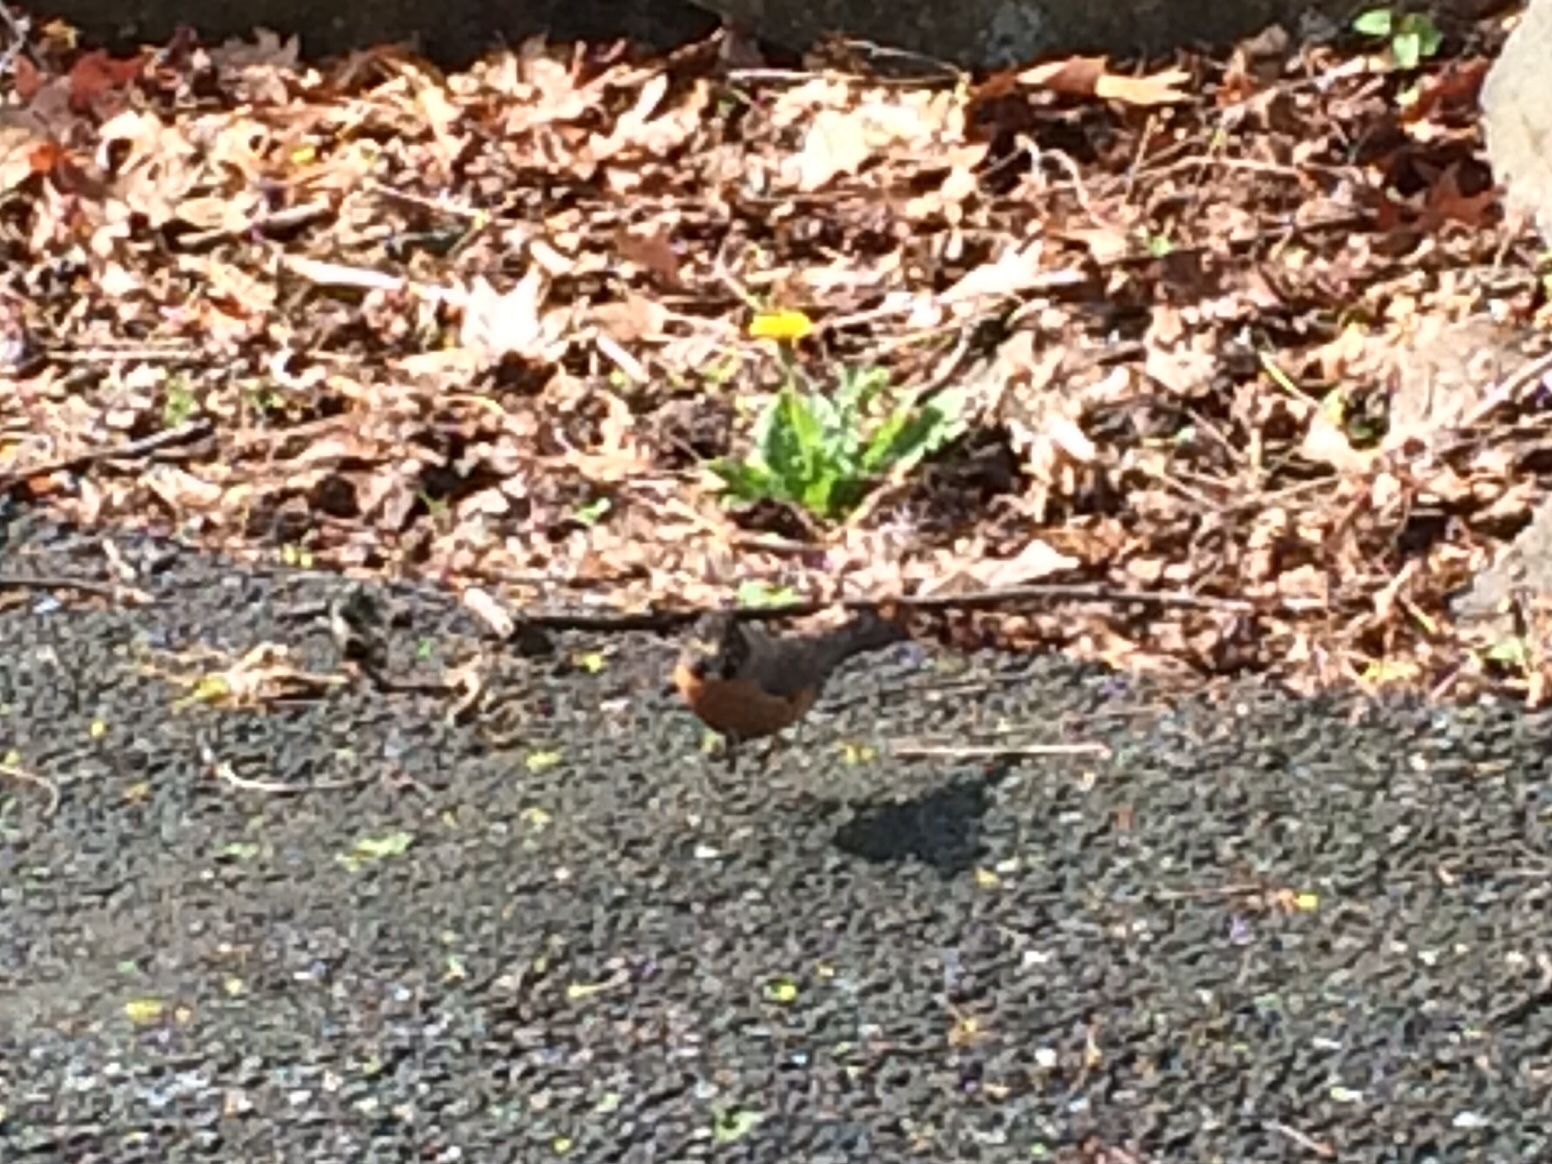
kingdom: Animalia
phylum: Chordata
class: Aves
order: Passeriformes
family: Turdidae
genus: Turdus
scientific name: Turdus migratorius
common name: American robin
